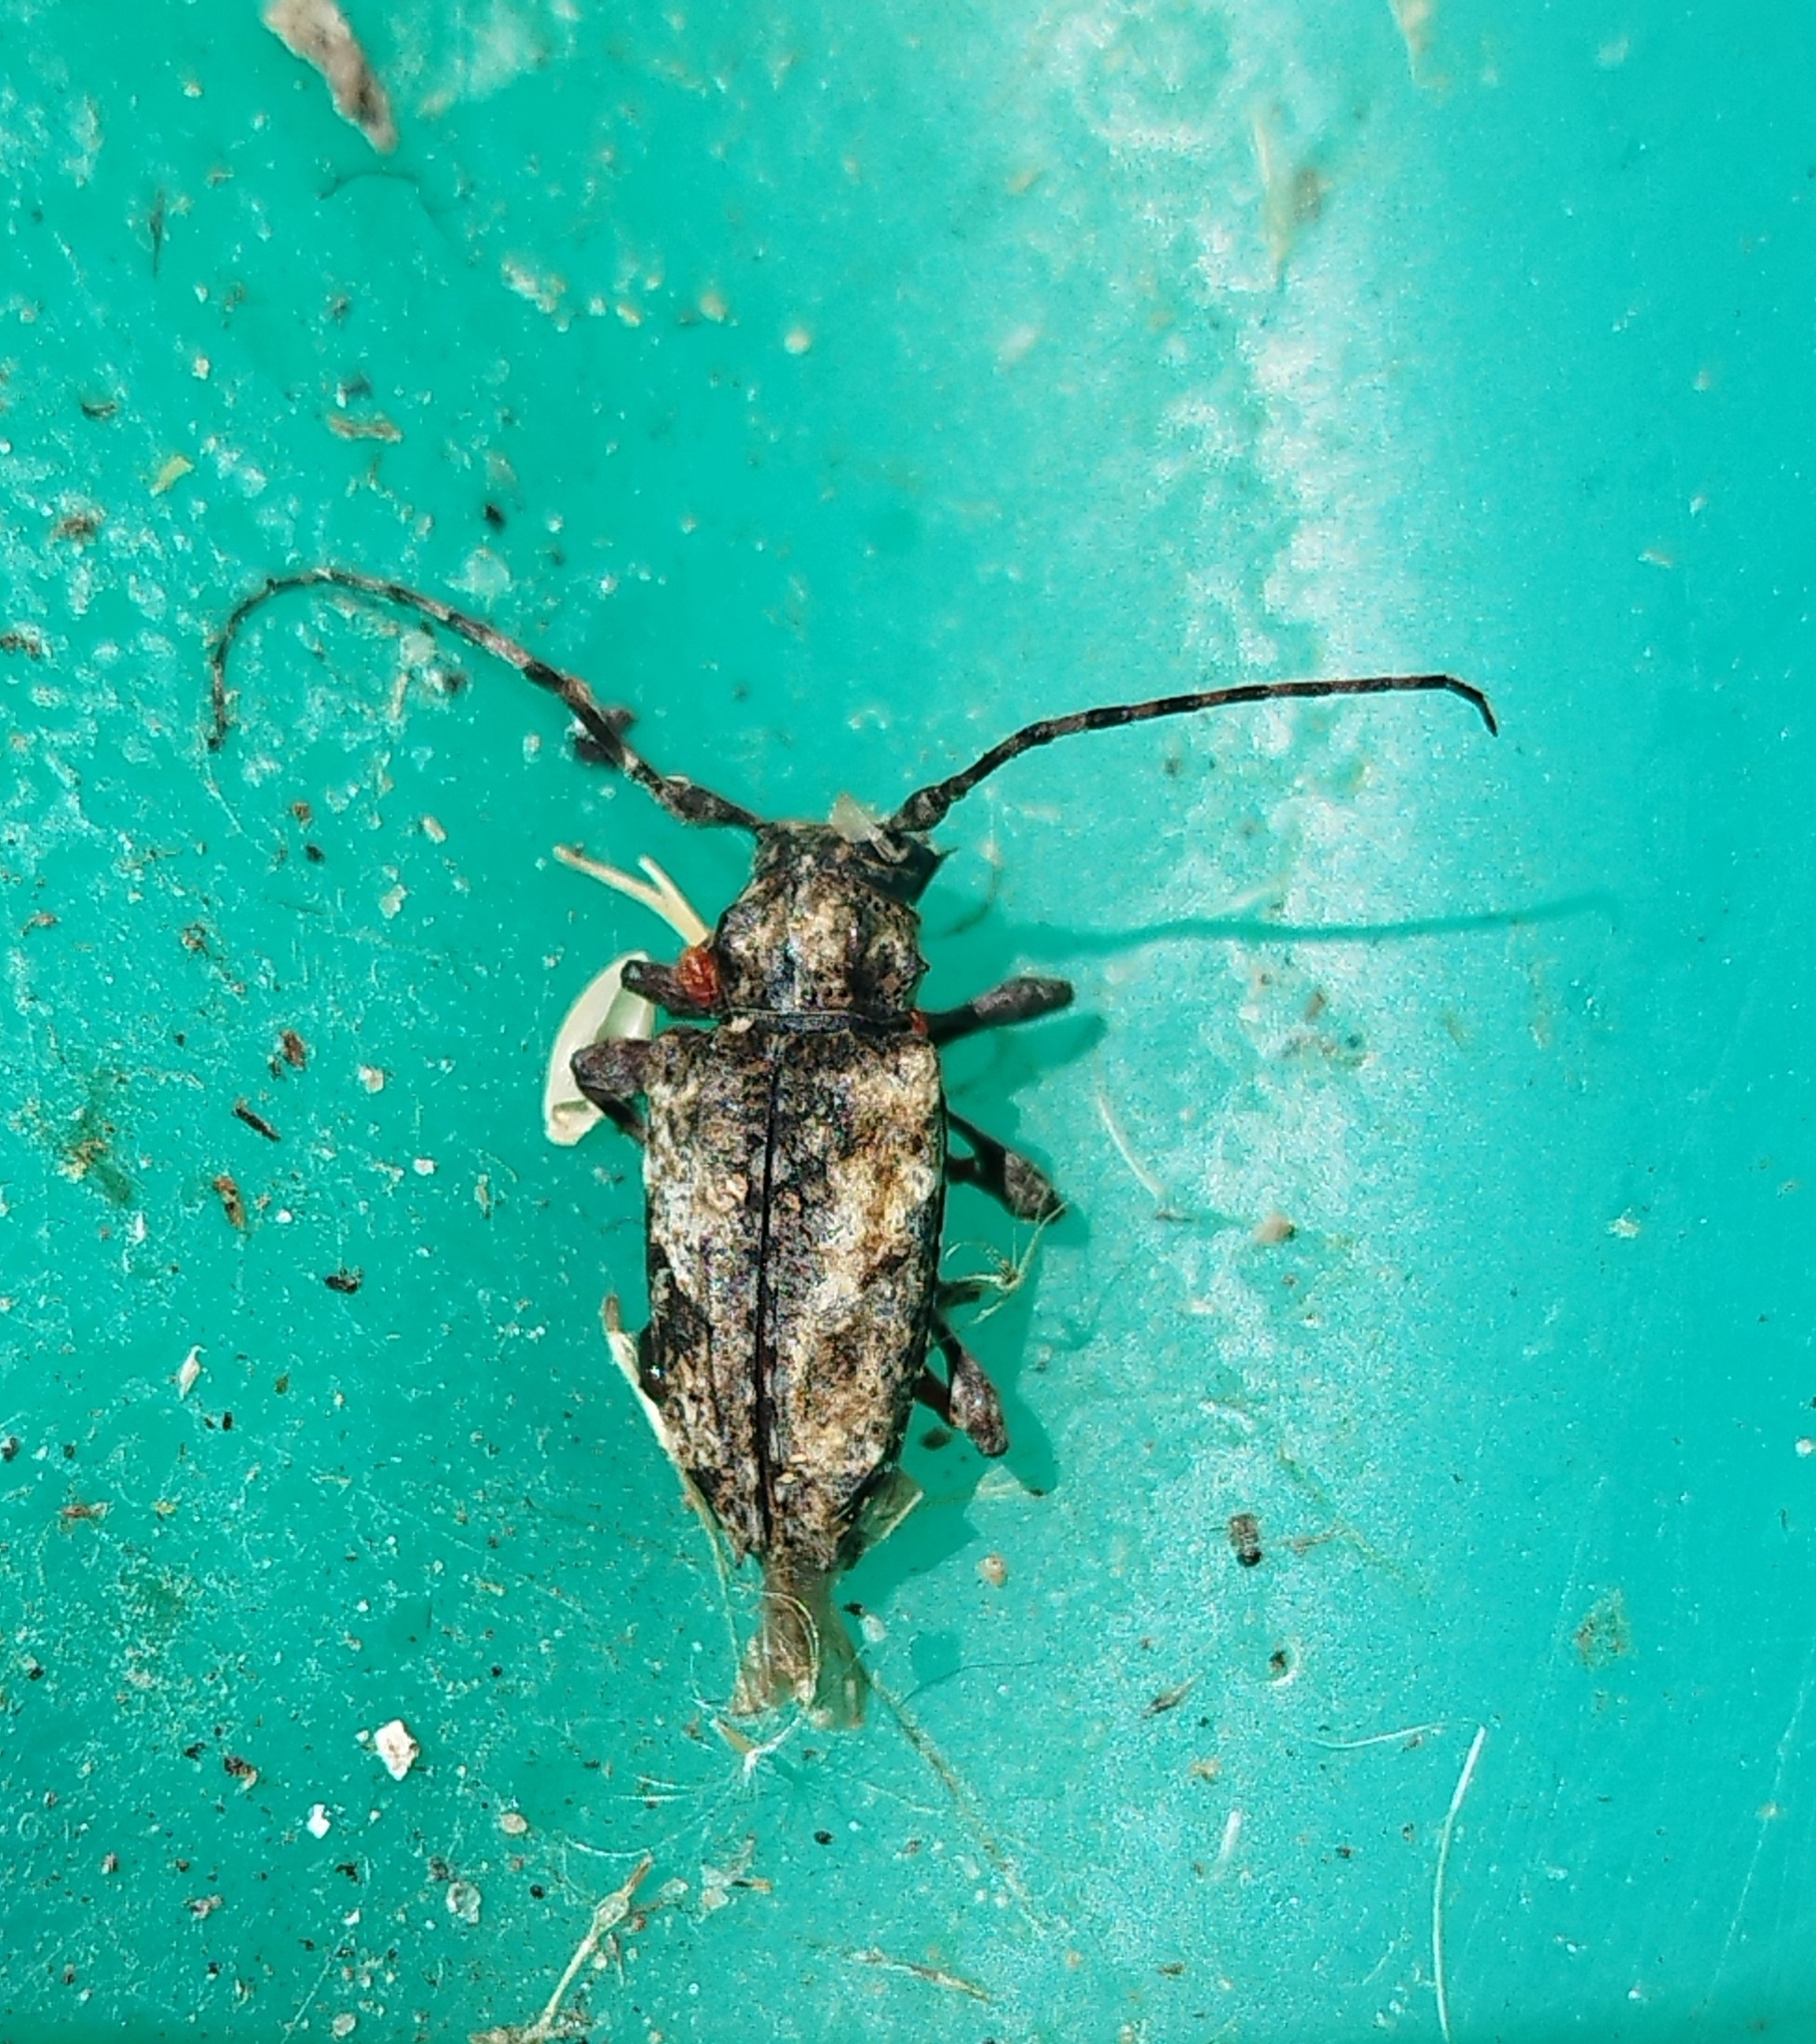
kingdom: Animalia
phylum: Arthropoda
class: Insecta
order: Coleoptera
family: Cerambycidae
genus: Psapharochrus
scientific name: Psapharochrus jaspideus
